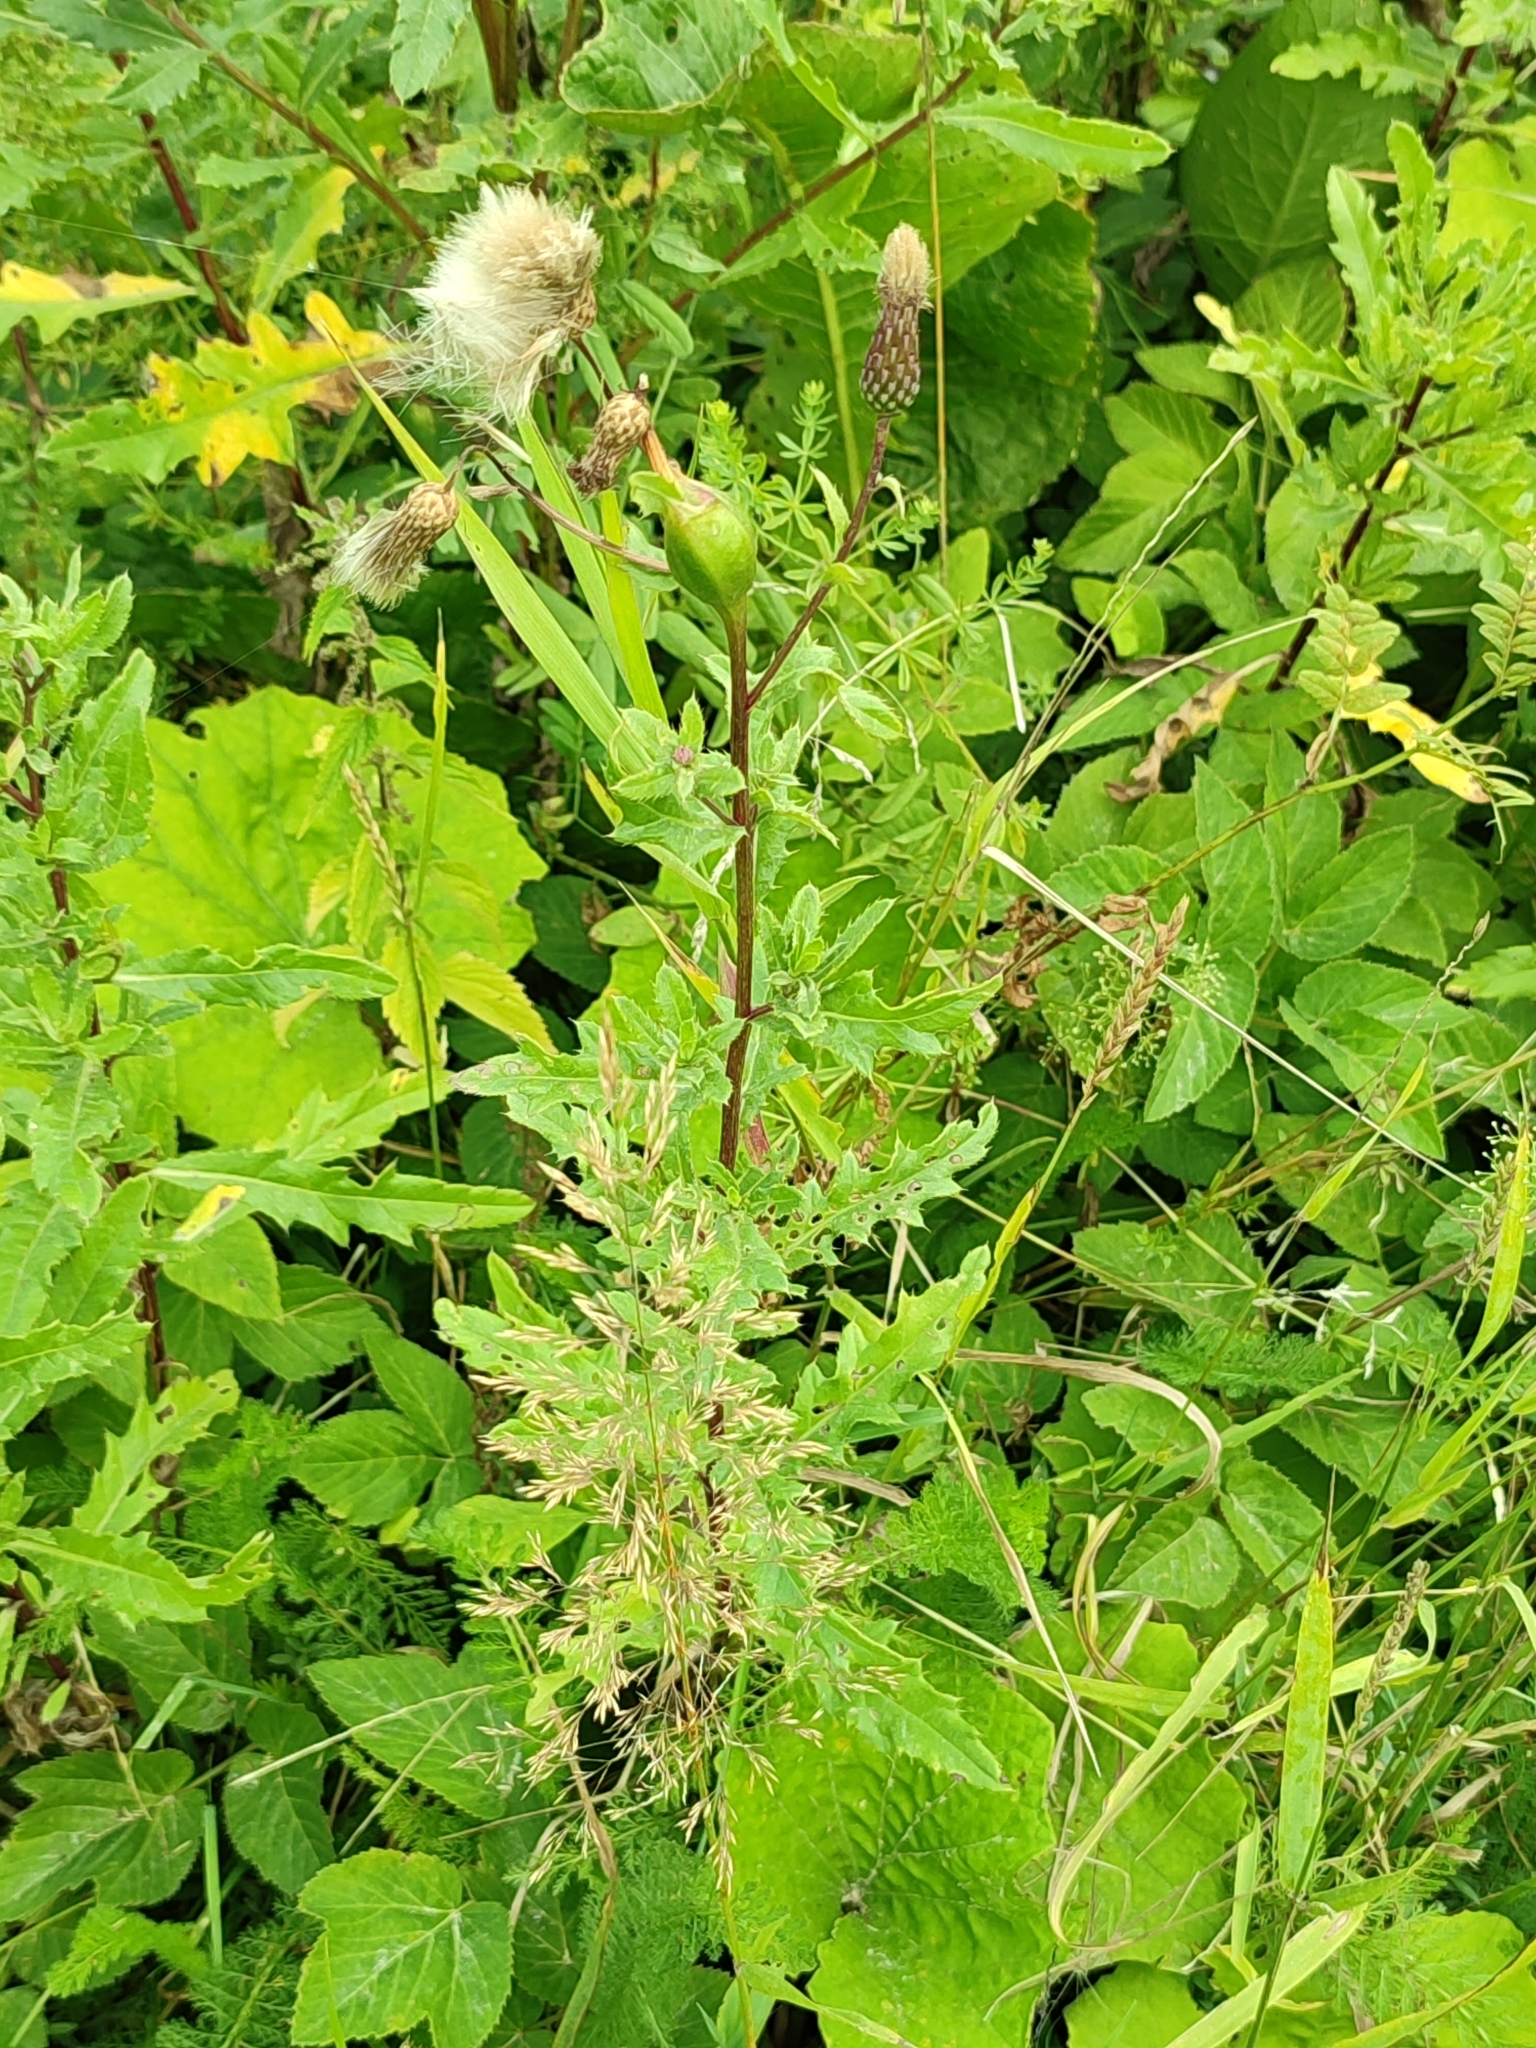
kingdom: Plantae
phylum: Tracheophyta
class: Magnoliopsida
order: Asterales
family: Asteraceae
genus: Cirsium
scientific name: Cirsium arvense
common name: Creeping thistle
